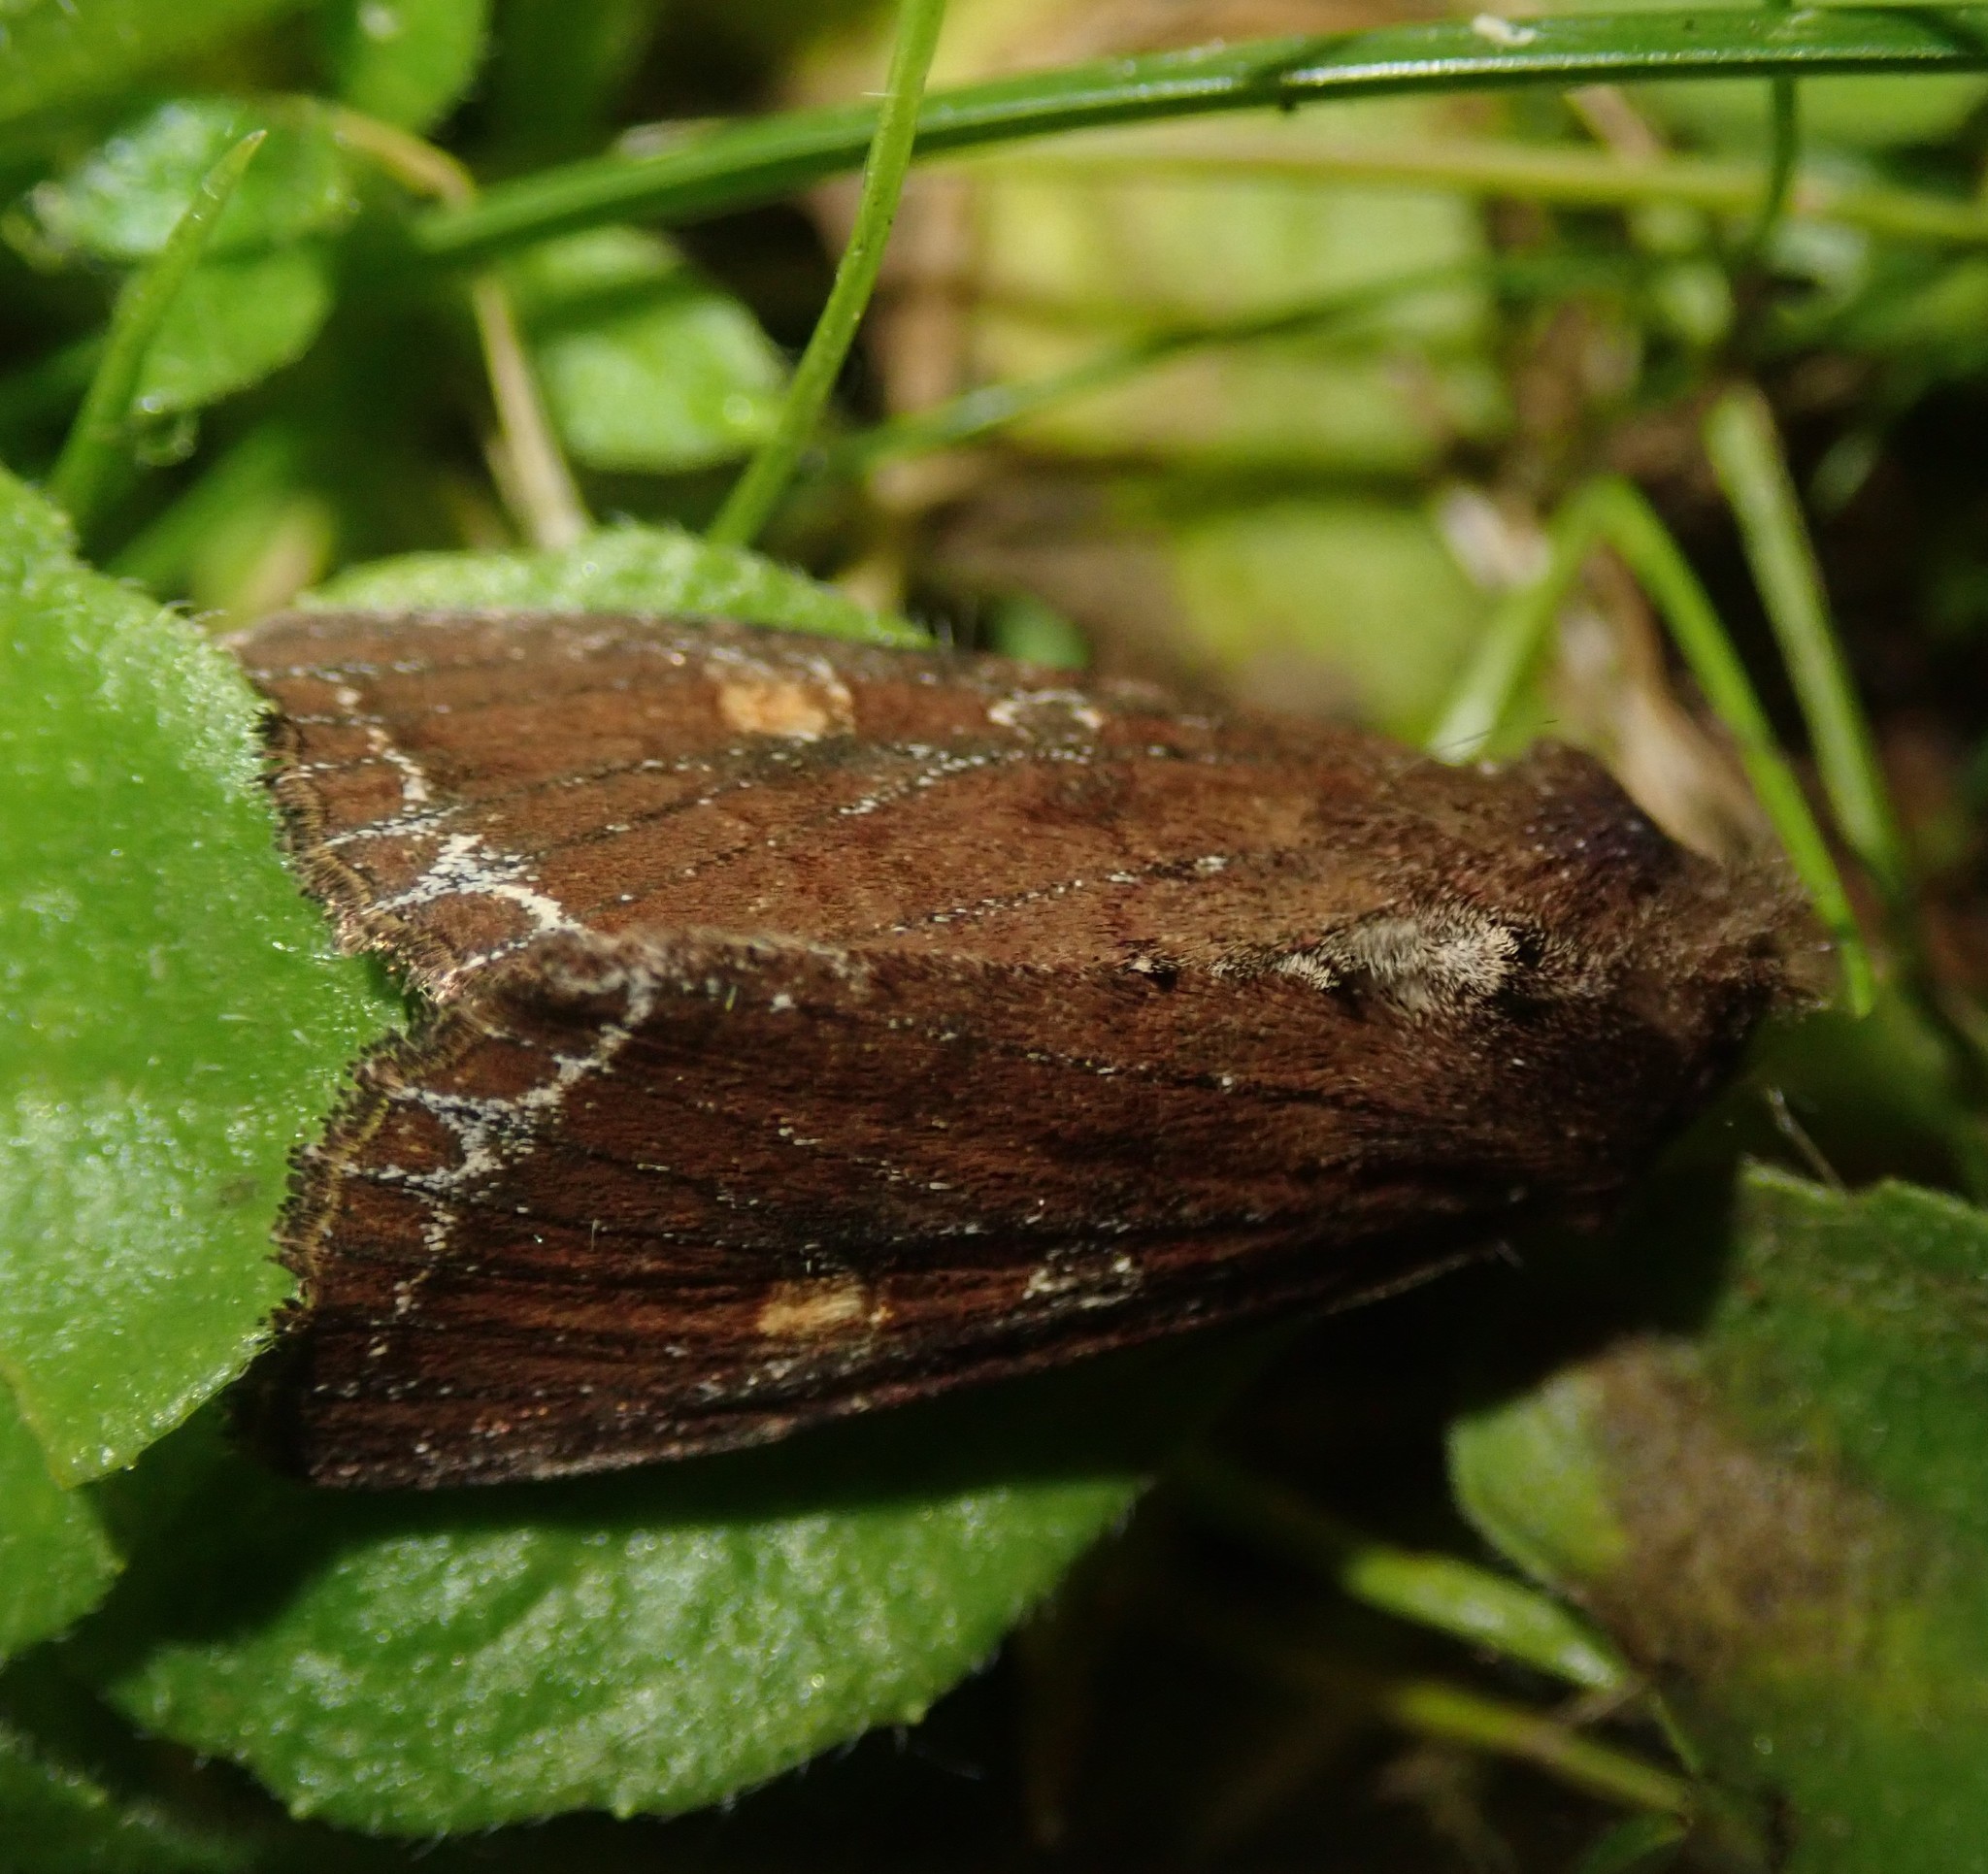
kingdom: Animalia
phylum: Arthropoda
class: Insecta
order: Lepidoptera
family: Noctuidae
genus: Lacanobia
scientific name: Lacanobia oleracea
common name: Bright-line brown-eye
